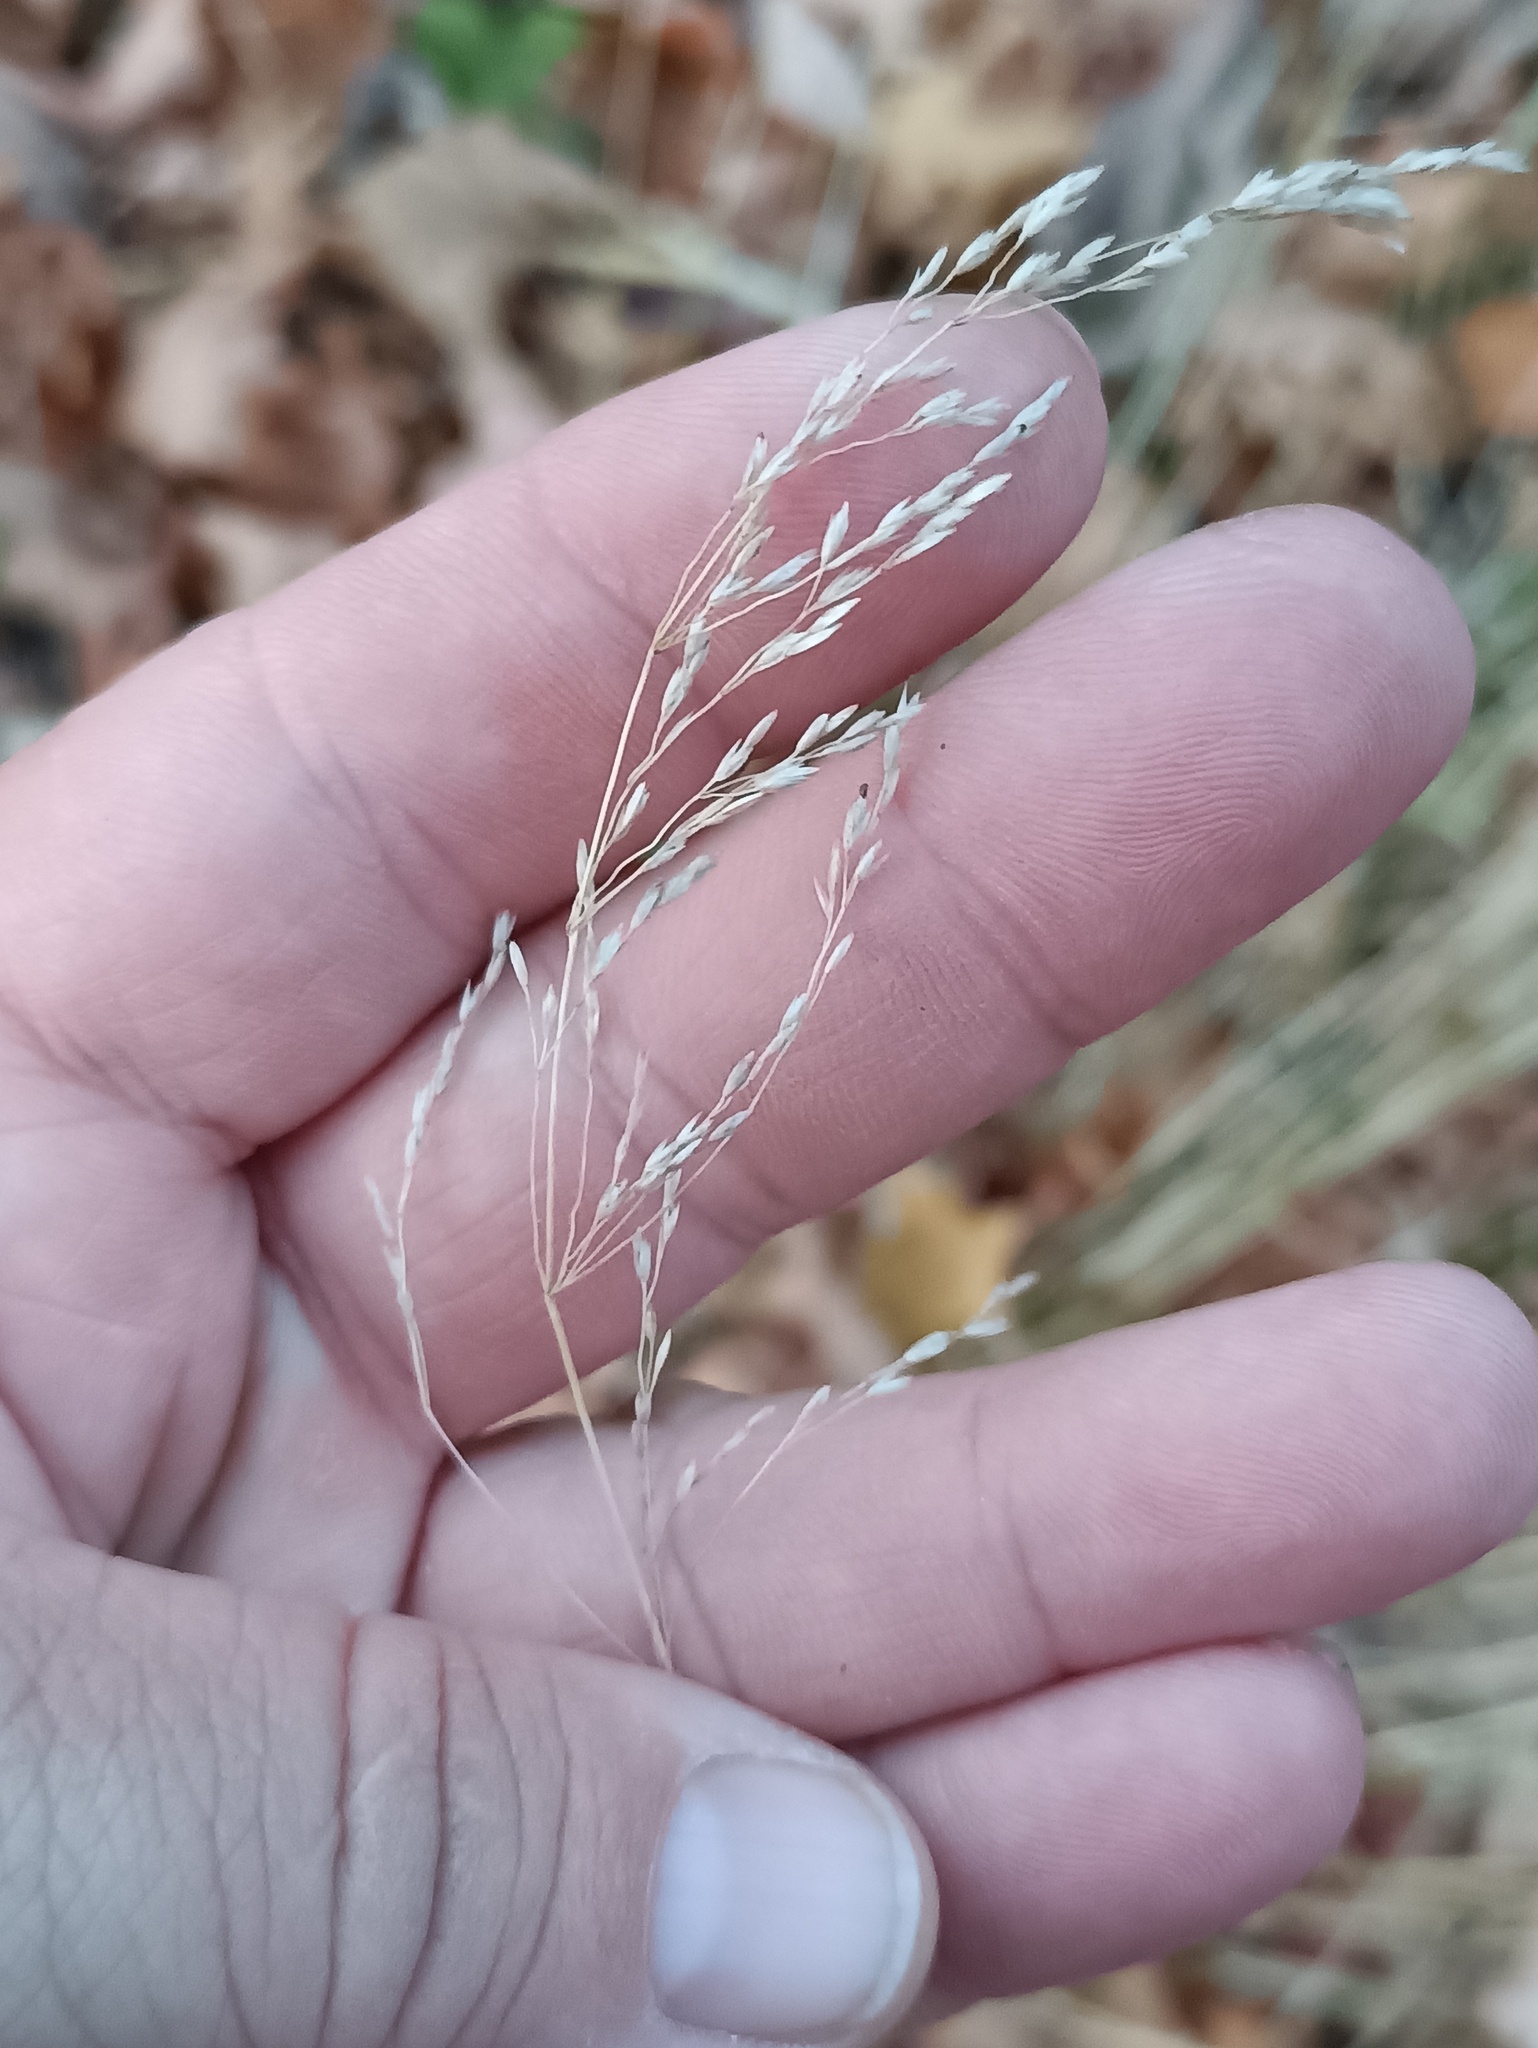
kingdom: Plantae
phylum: Tracheophyta
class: Liliopsida
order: Poales
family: Poaceae
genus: Poa
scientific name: Poa nemoralis
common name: Wood bluegrass
